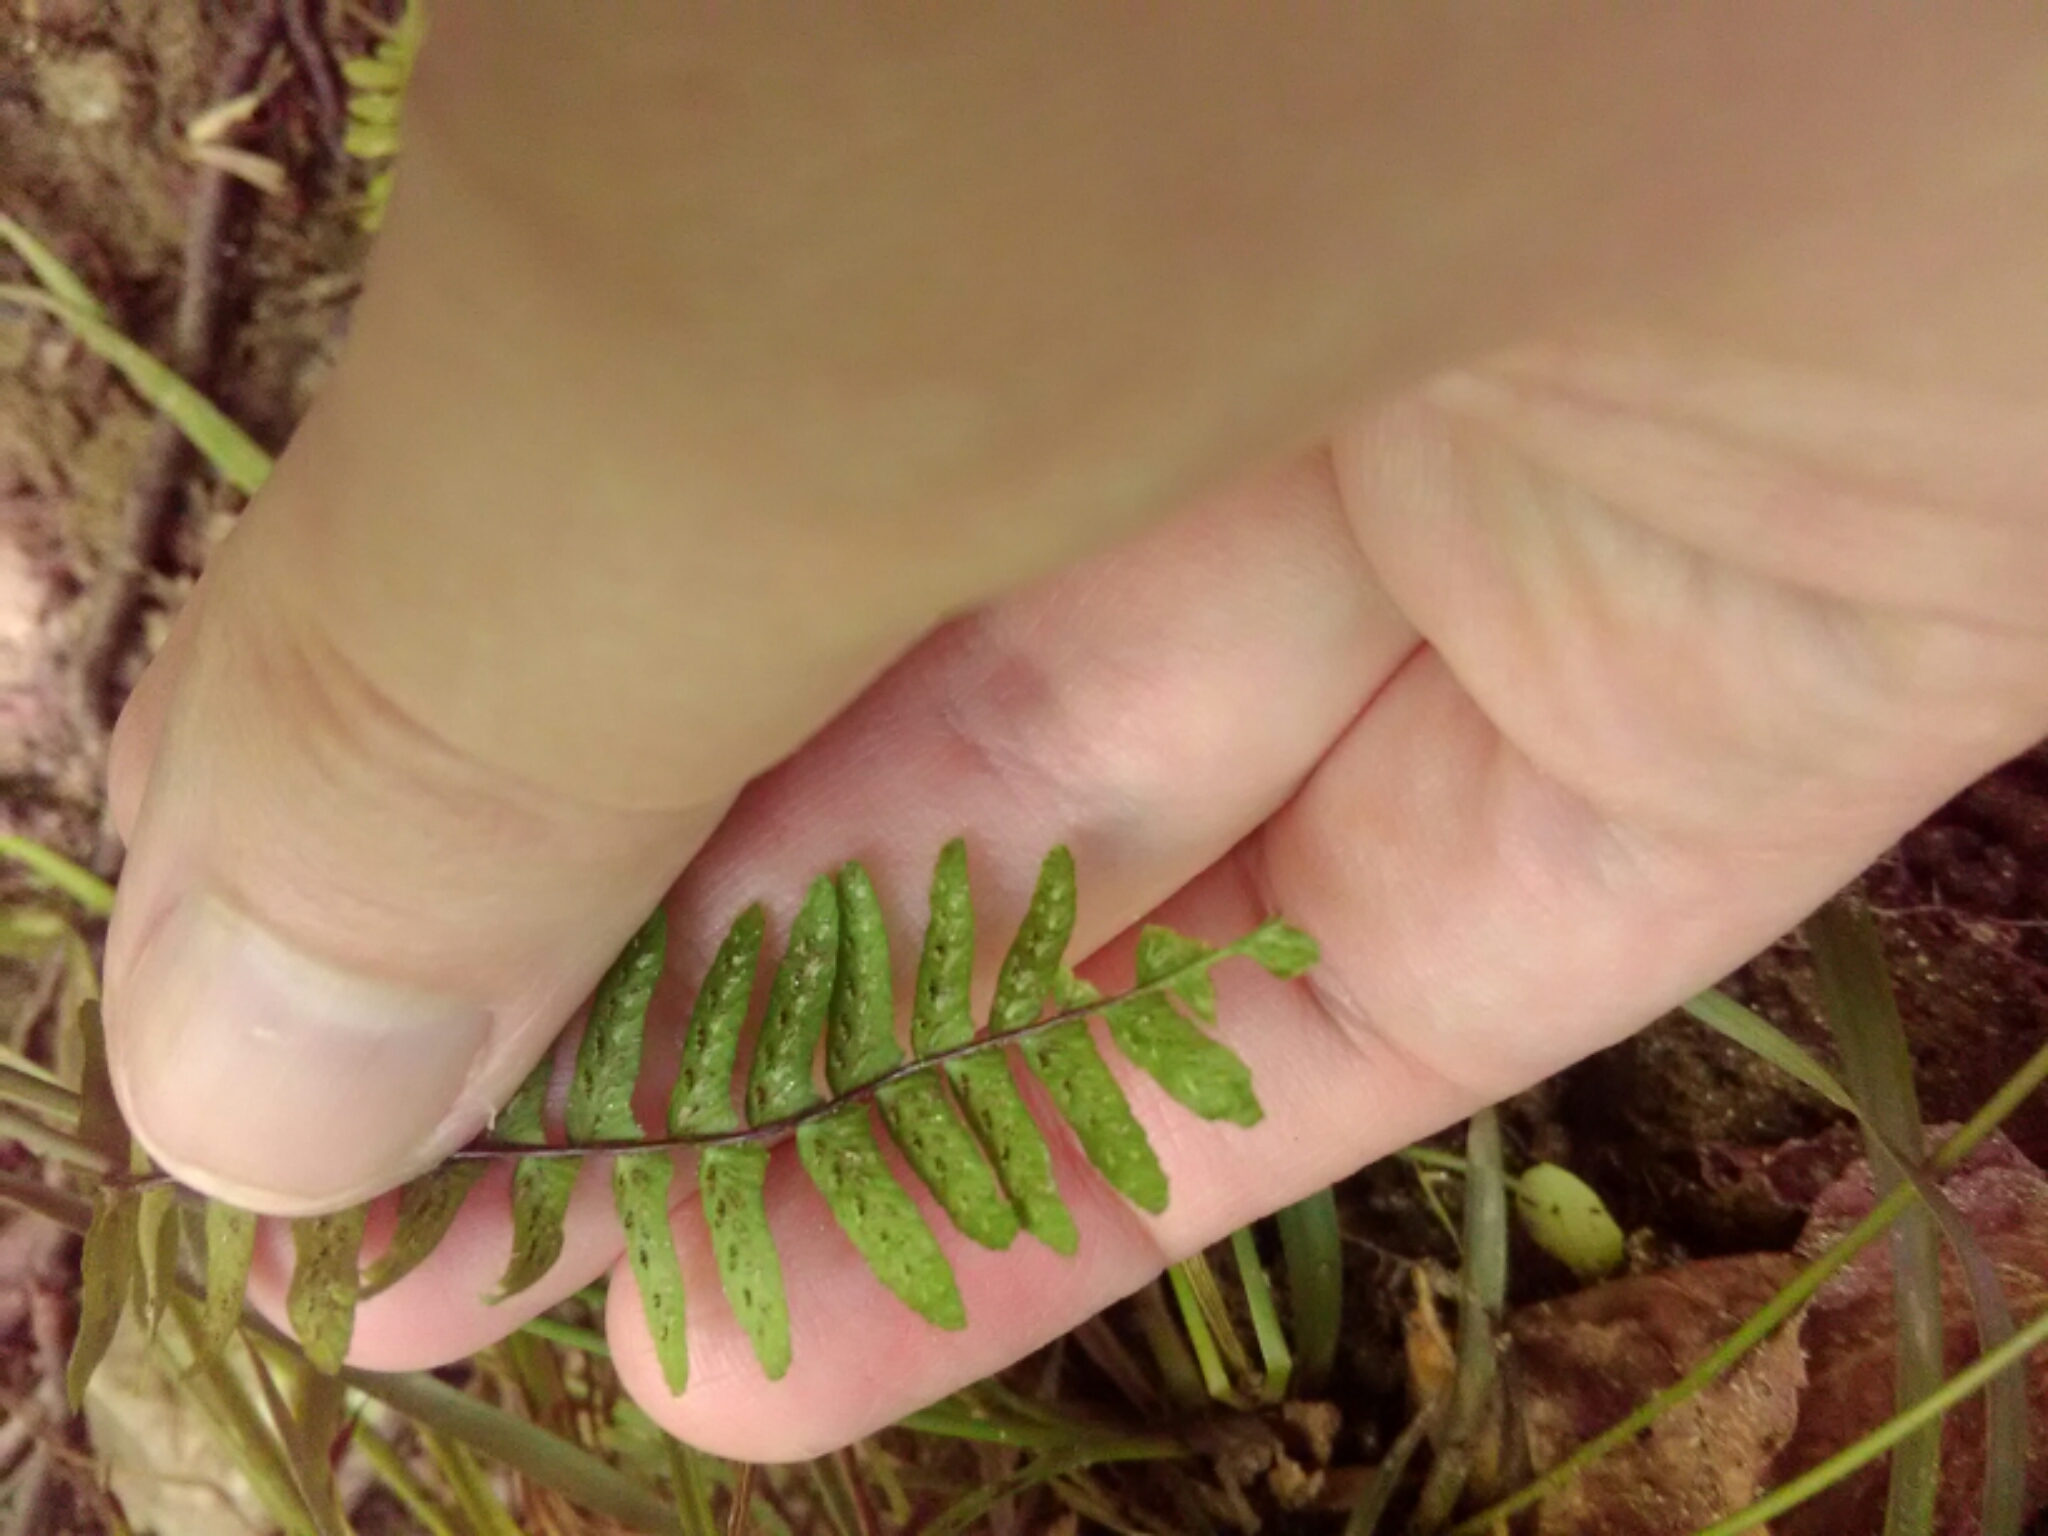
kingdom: Plantae
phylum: Tracheophyta
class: Polypodiopsida
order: Polypodiales
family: Aspleniaceae
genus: Asplenium
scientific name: Asplenium platyneuron
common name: Ebony spleenwort
